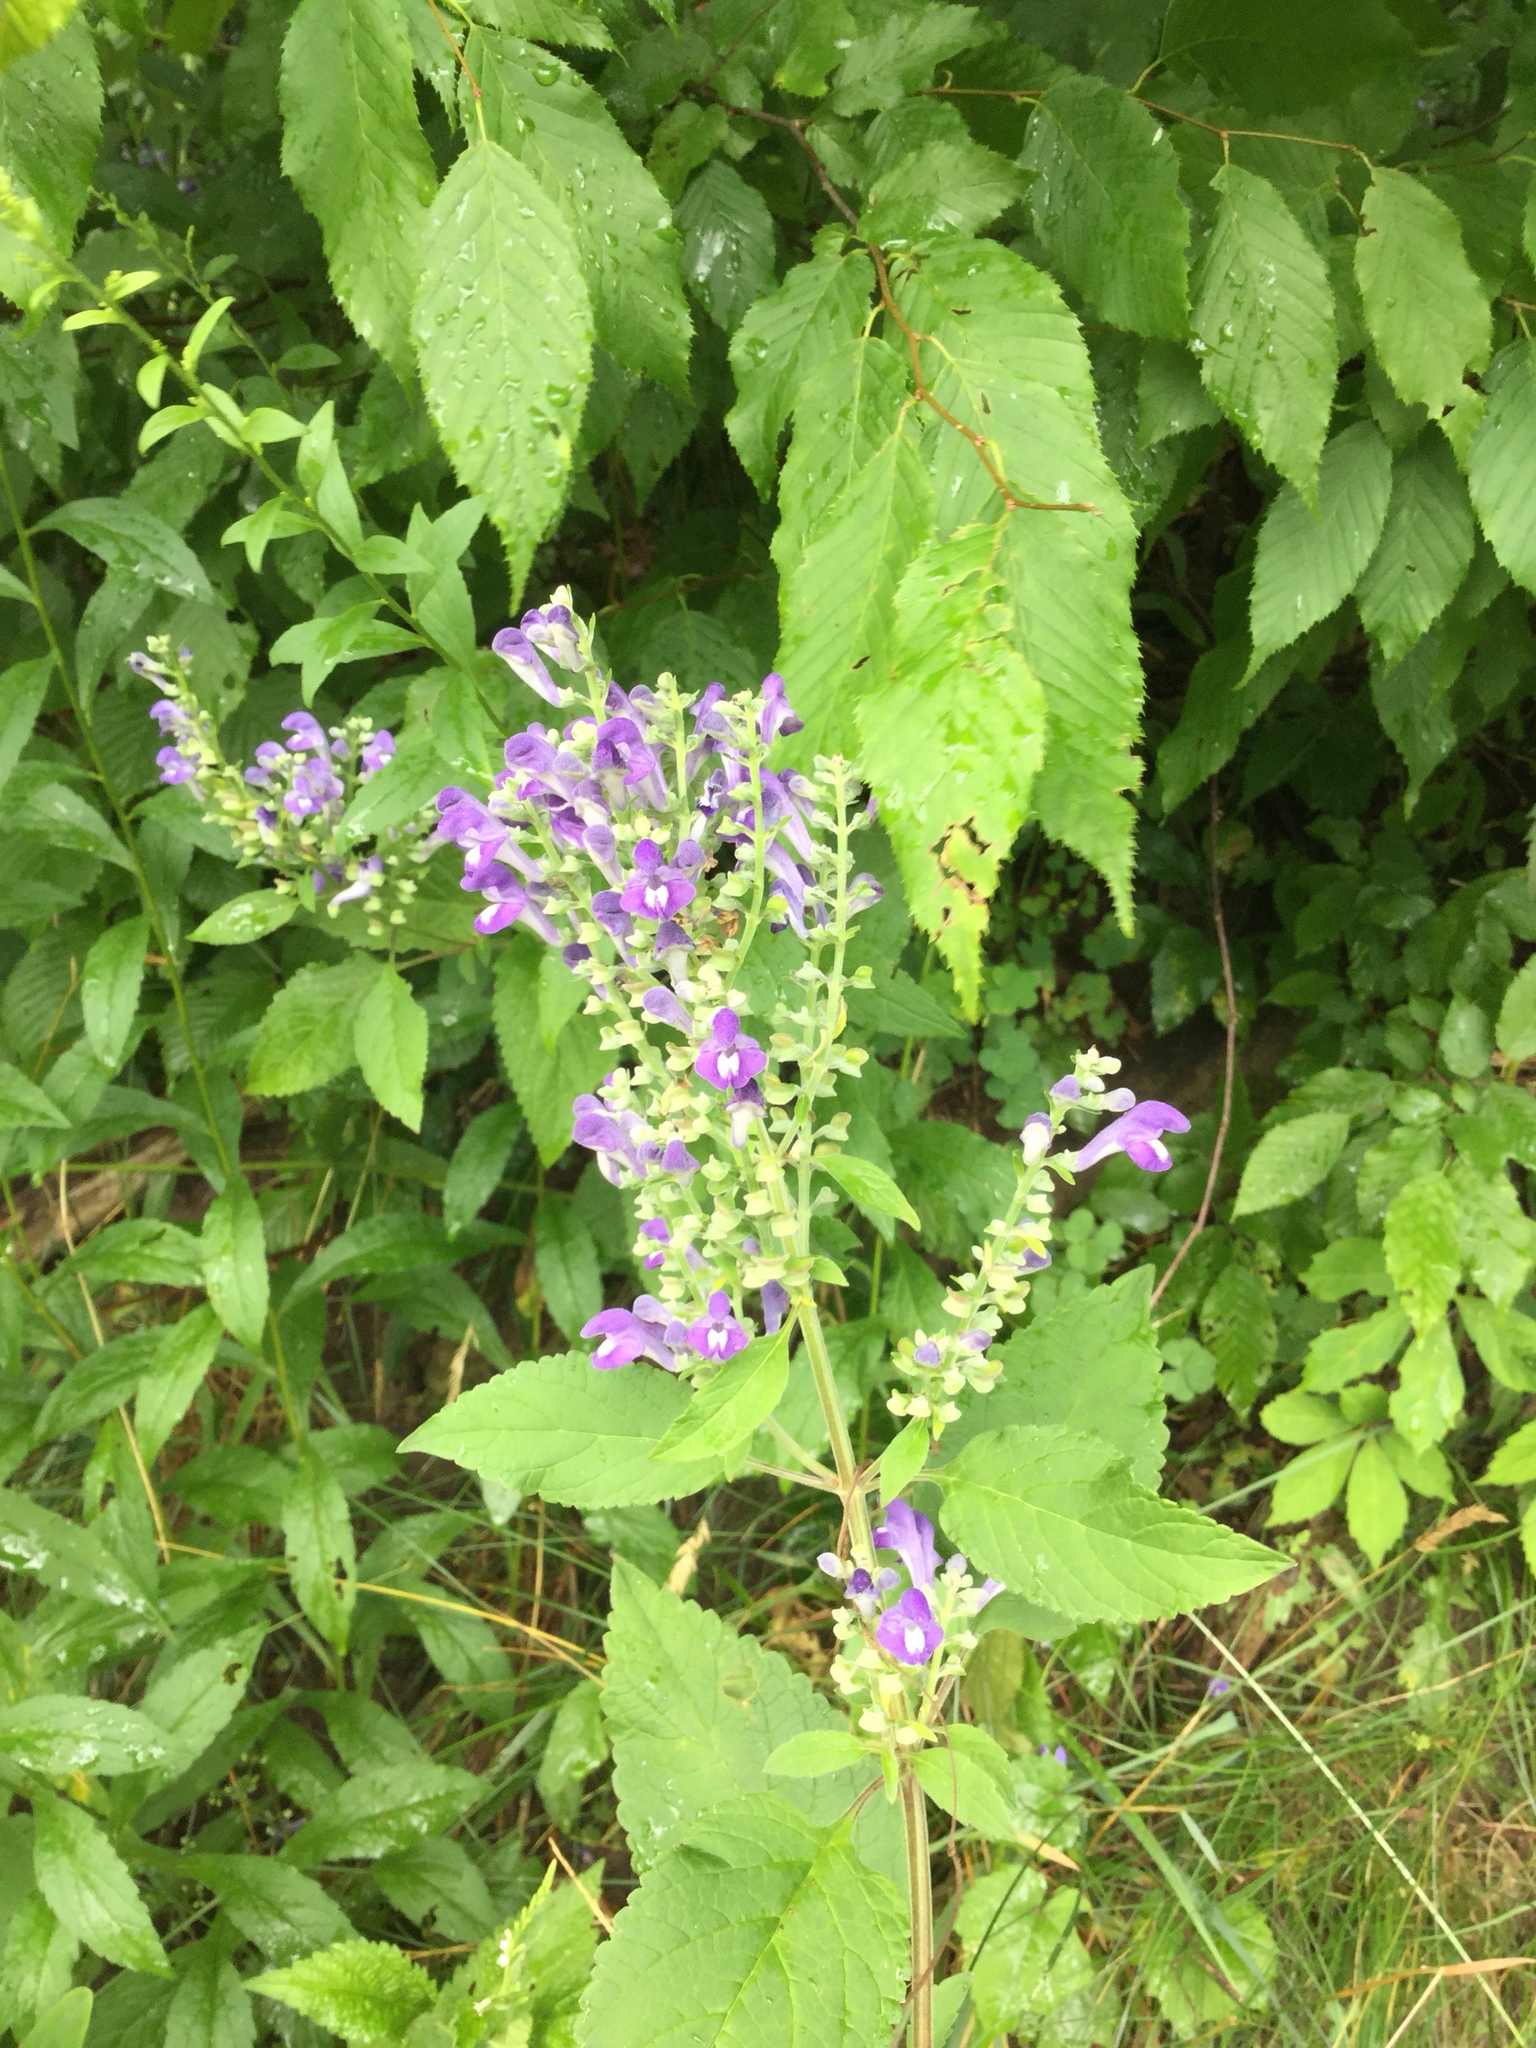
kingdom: Plantae
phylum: Tracheophyta
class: Magnoliopsida
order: Lamiales
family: Lamiaceae
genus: Scutellaria
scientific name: Scutellaria incana
